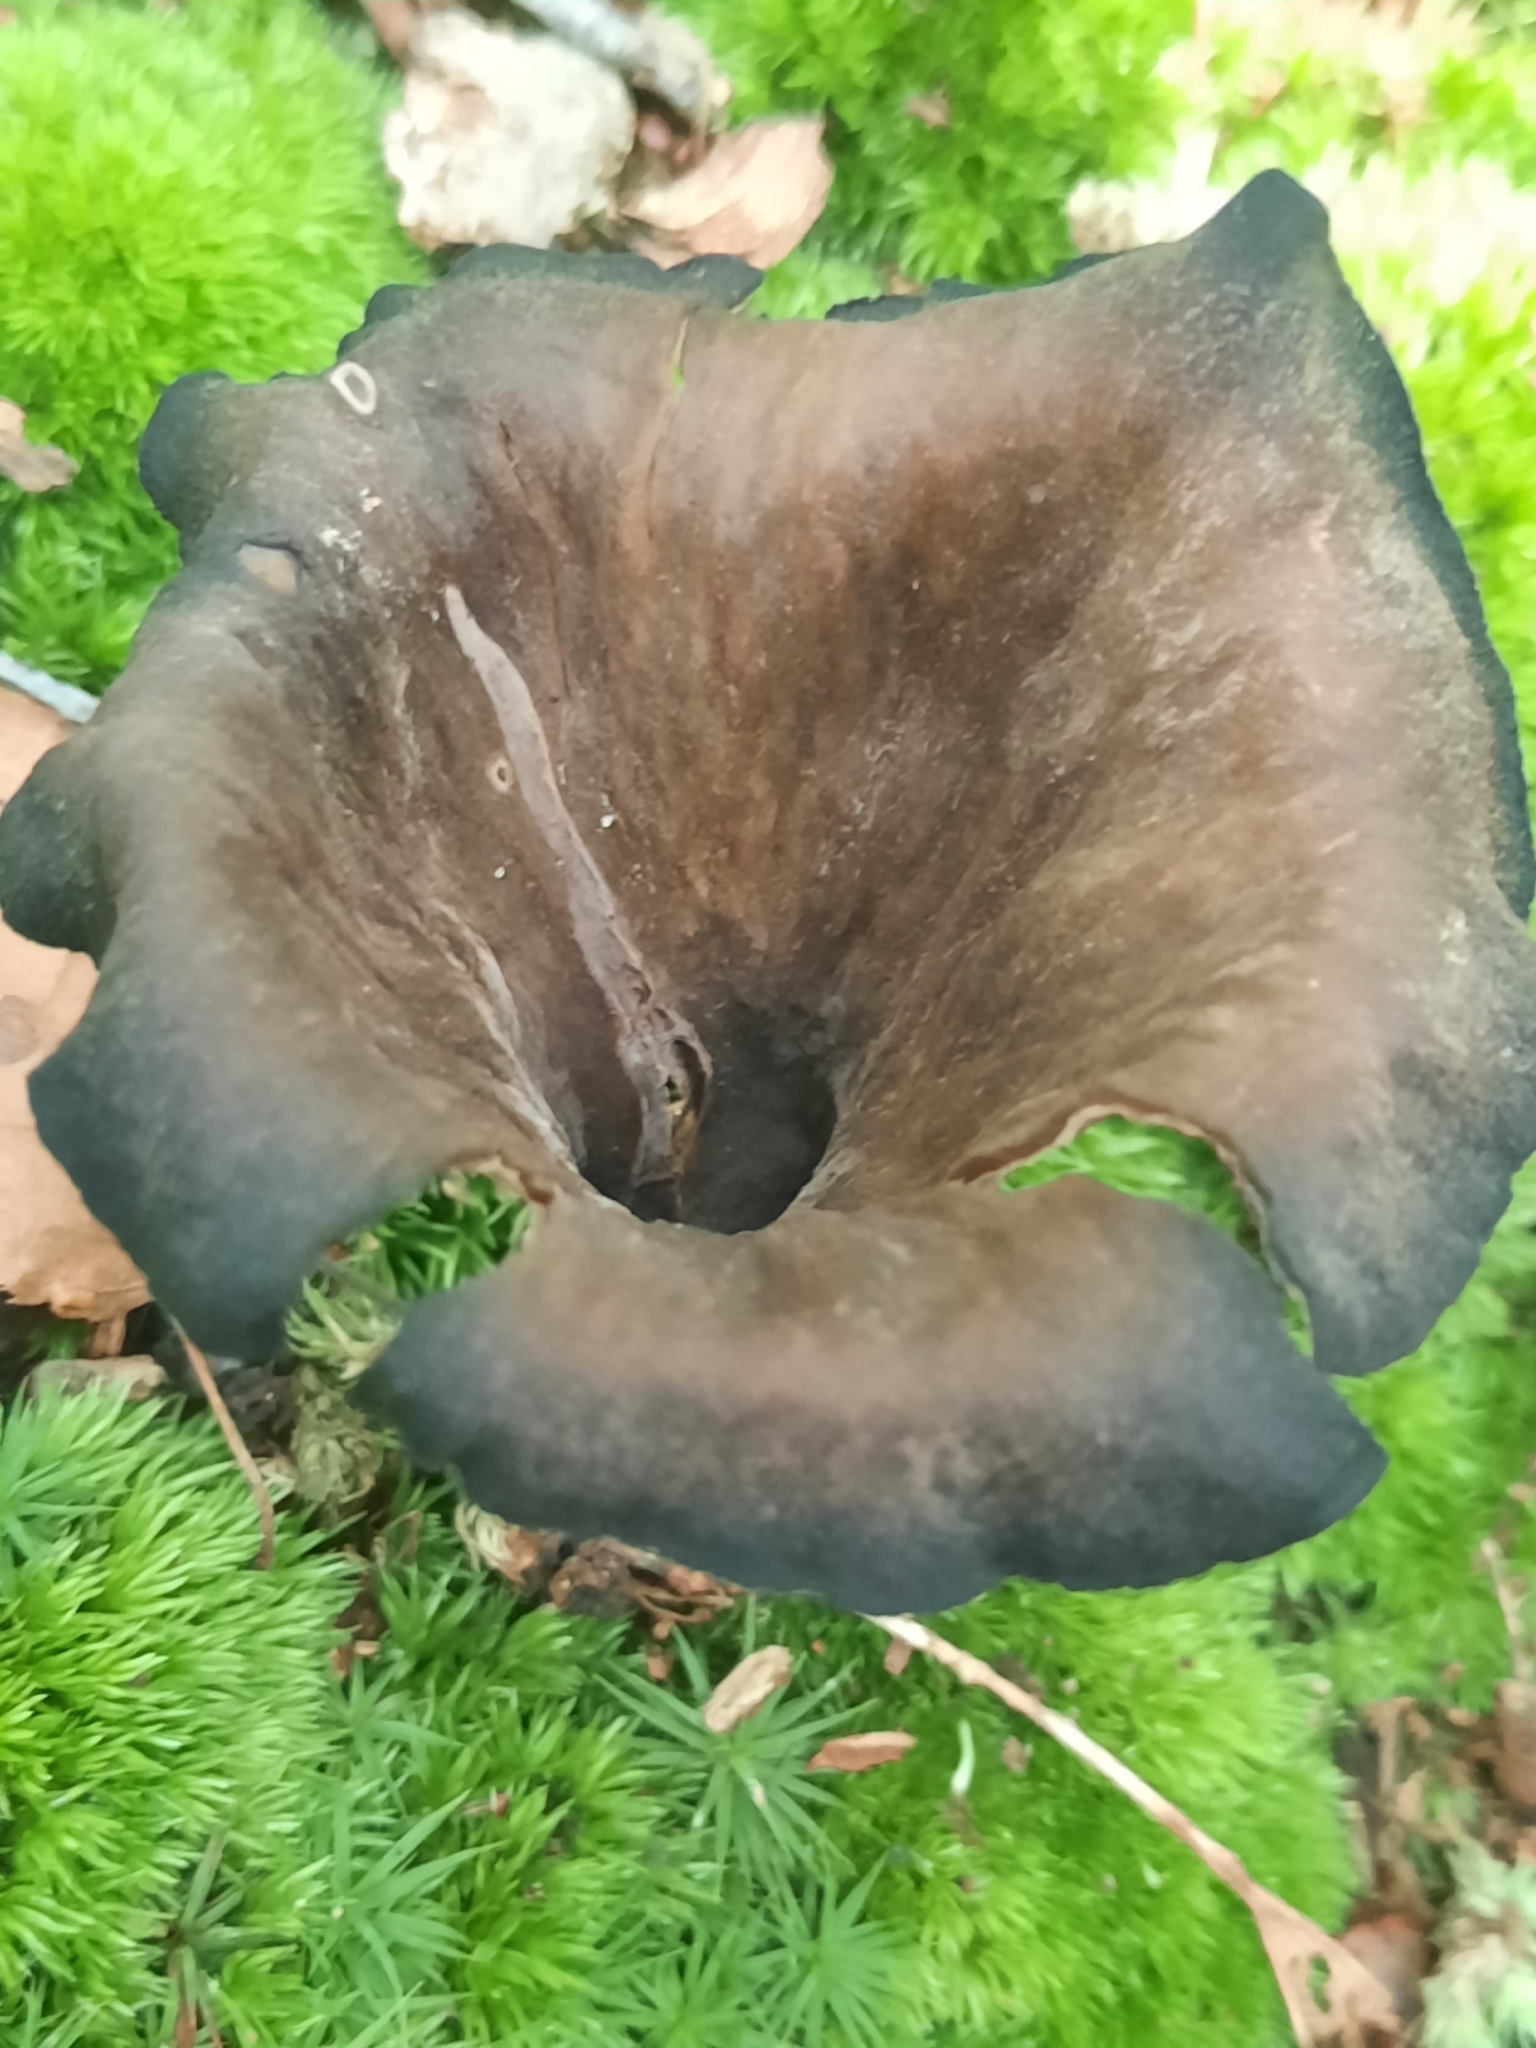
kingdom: Fungi
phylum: Basidiomycota
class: Agaricomycetes
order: Cantharellales
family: Hydnaceae
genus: Craterellus
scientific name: Craterellus cornucopioides
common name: Horn of plenty
